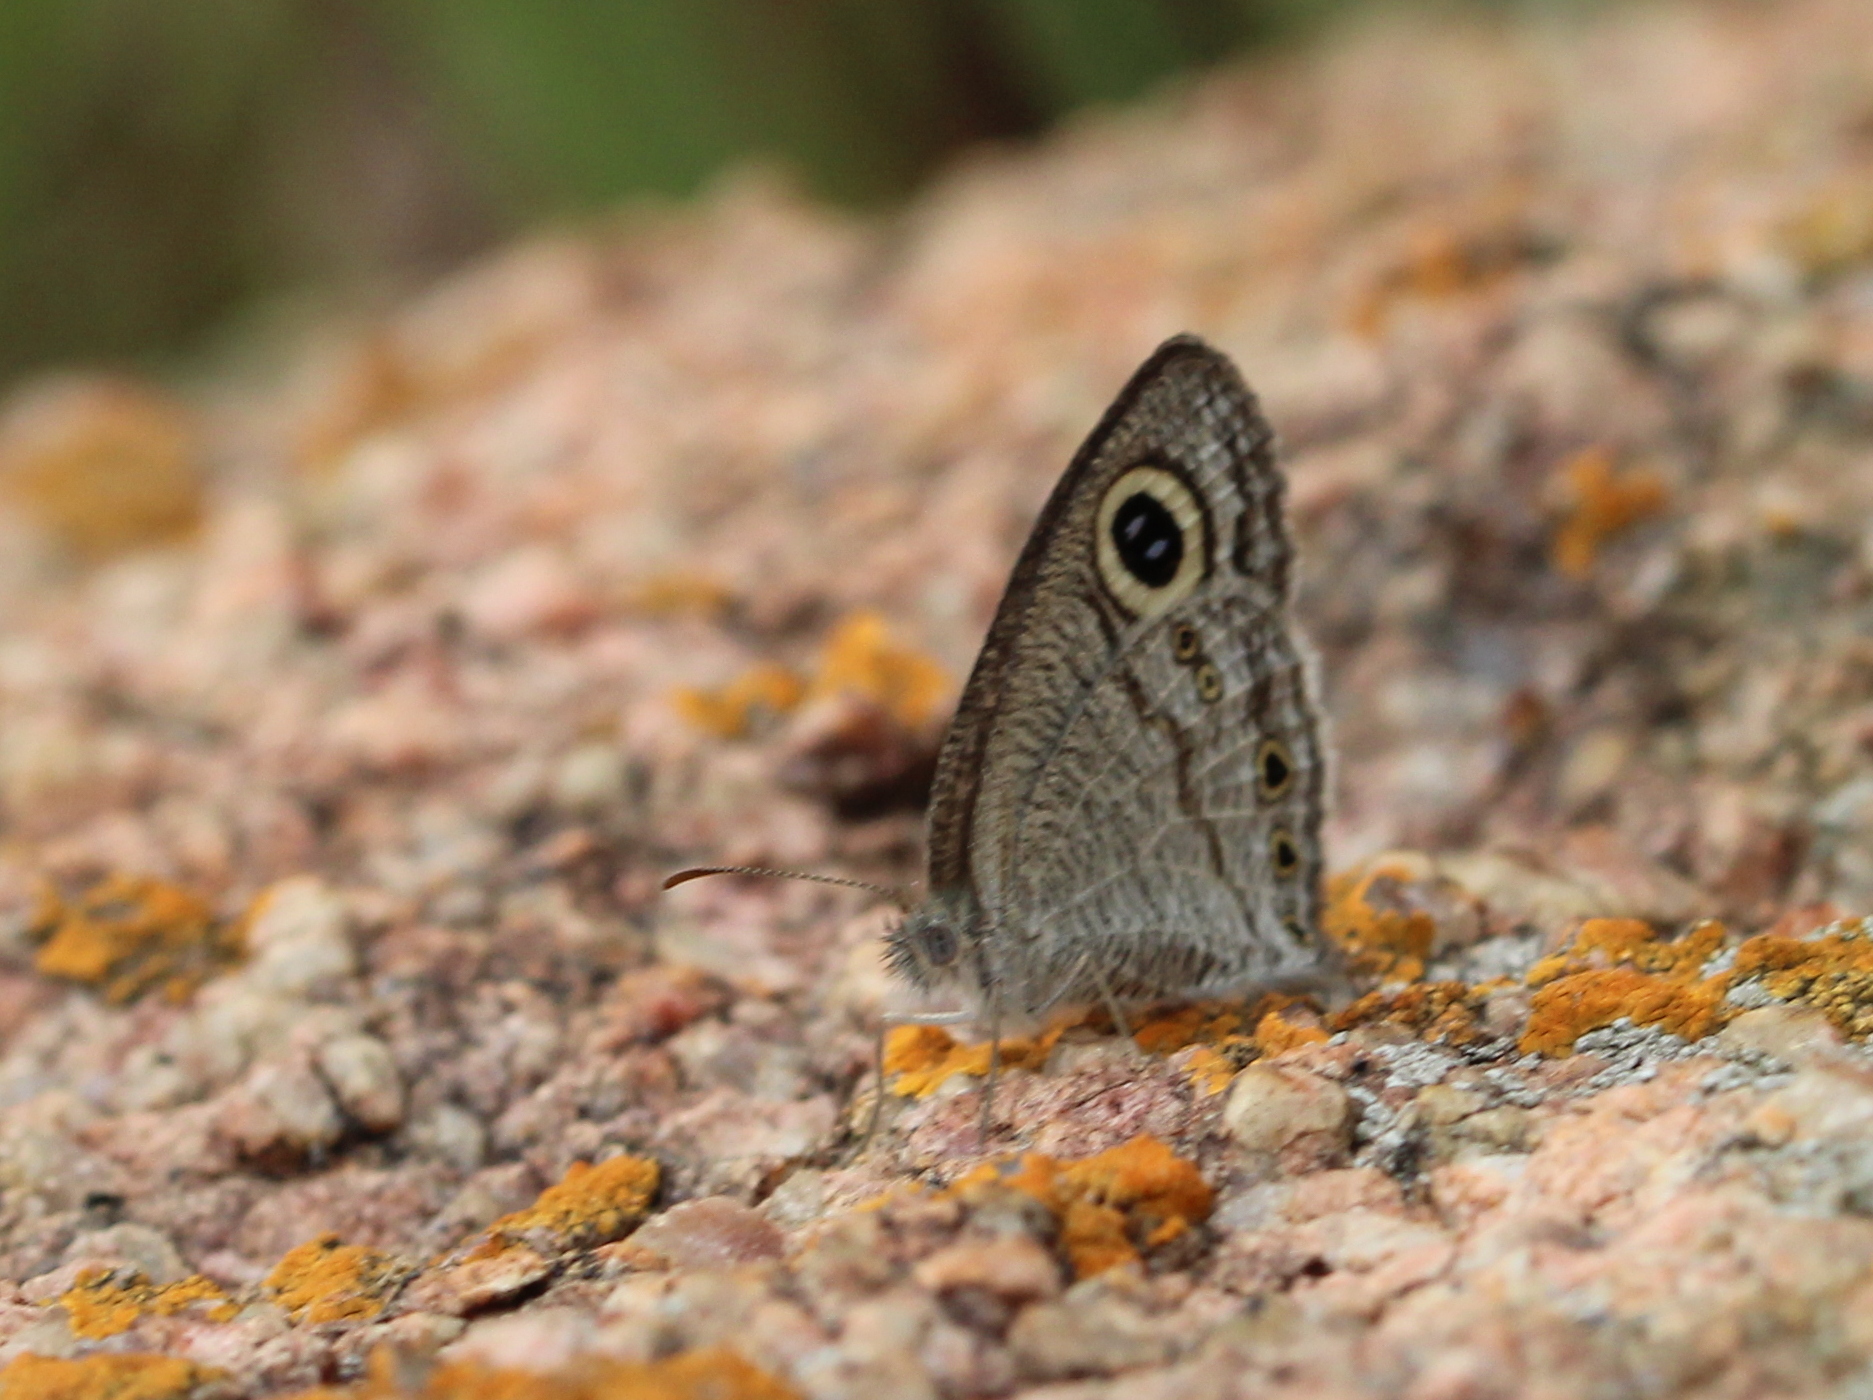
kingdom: Animalia
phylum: Arthropoda
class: Insecta
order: Lepidoptera
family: Nymphalidae
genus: Ypthima
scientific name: Ypthima avanta
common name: Jewel five-ring
